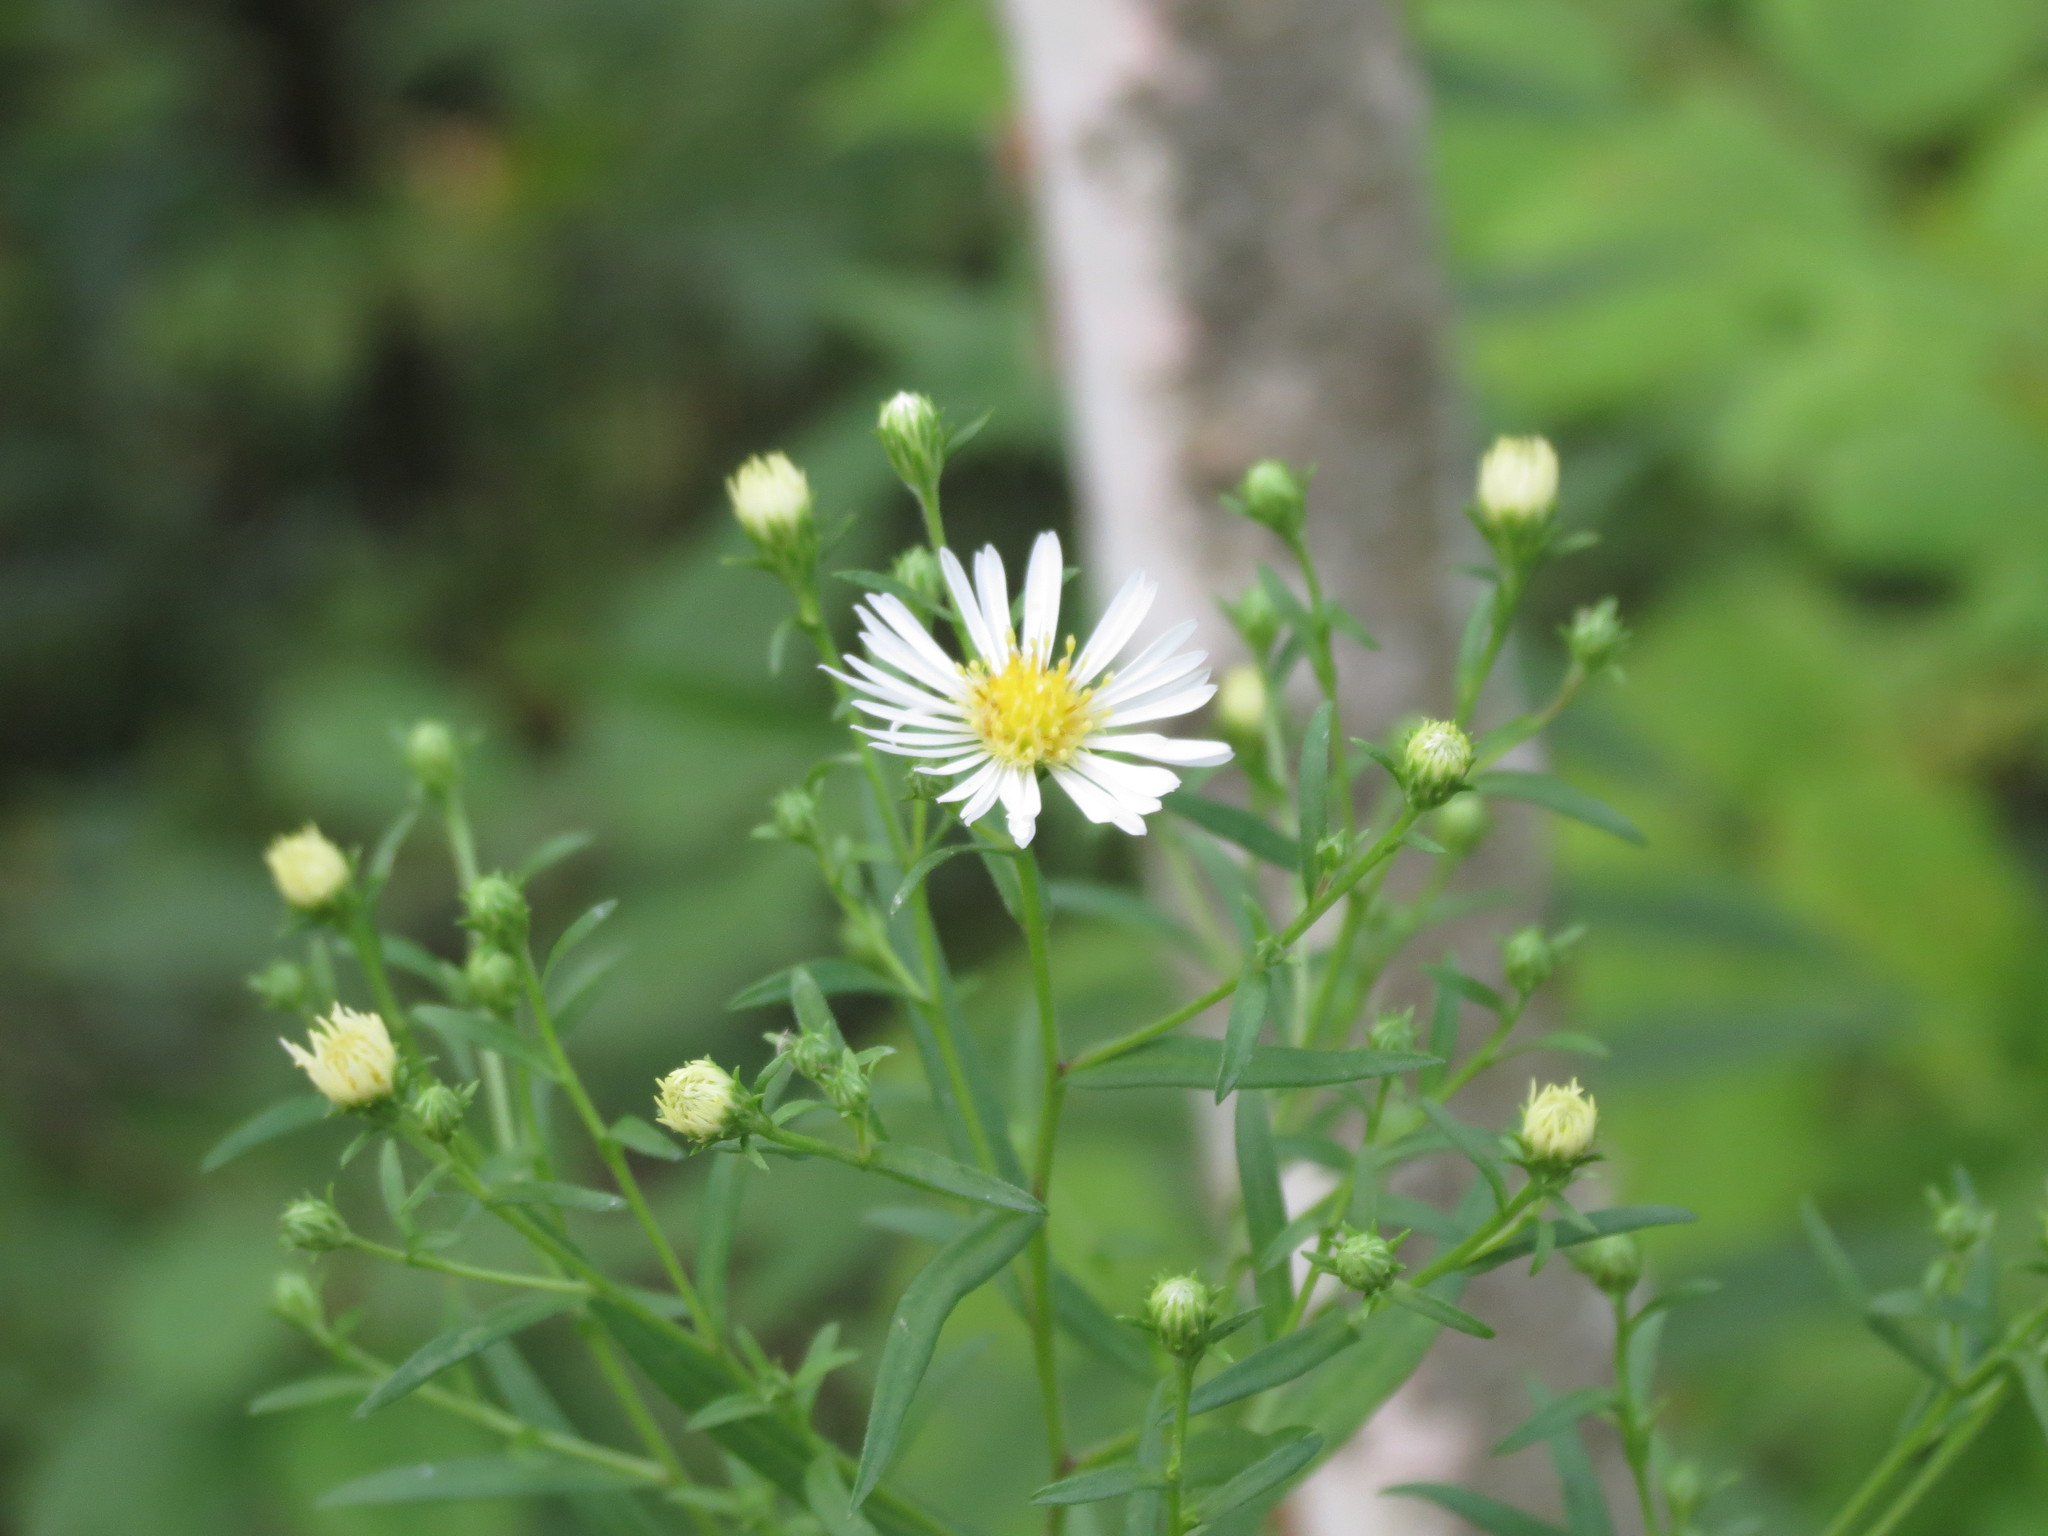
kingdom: Plantae
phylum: Tracheophyta
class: Magnoliopsida
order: Asterales
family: Asteraceae
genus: Symphyotrichum
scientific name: Symphyotrichum lanceolatum
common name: Panicled aster
